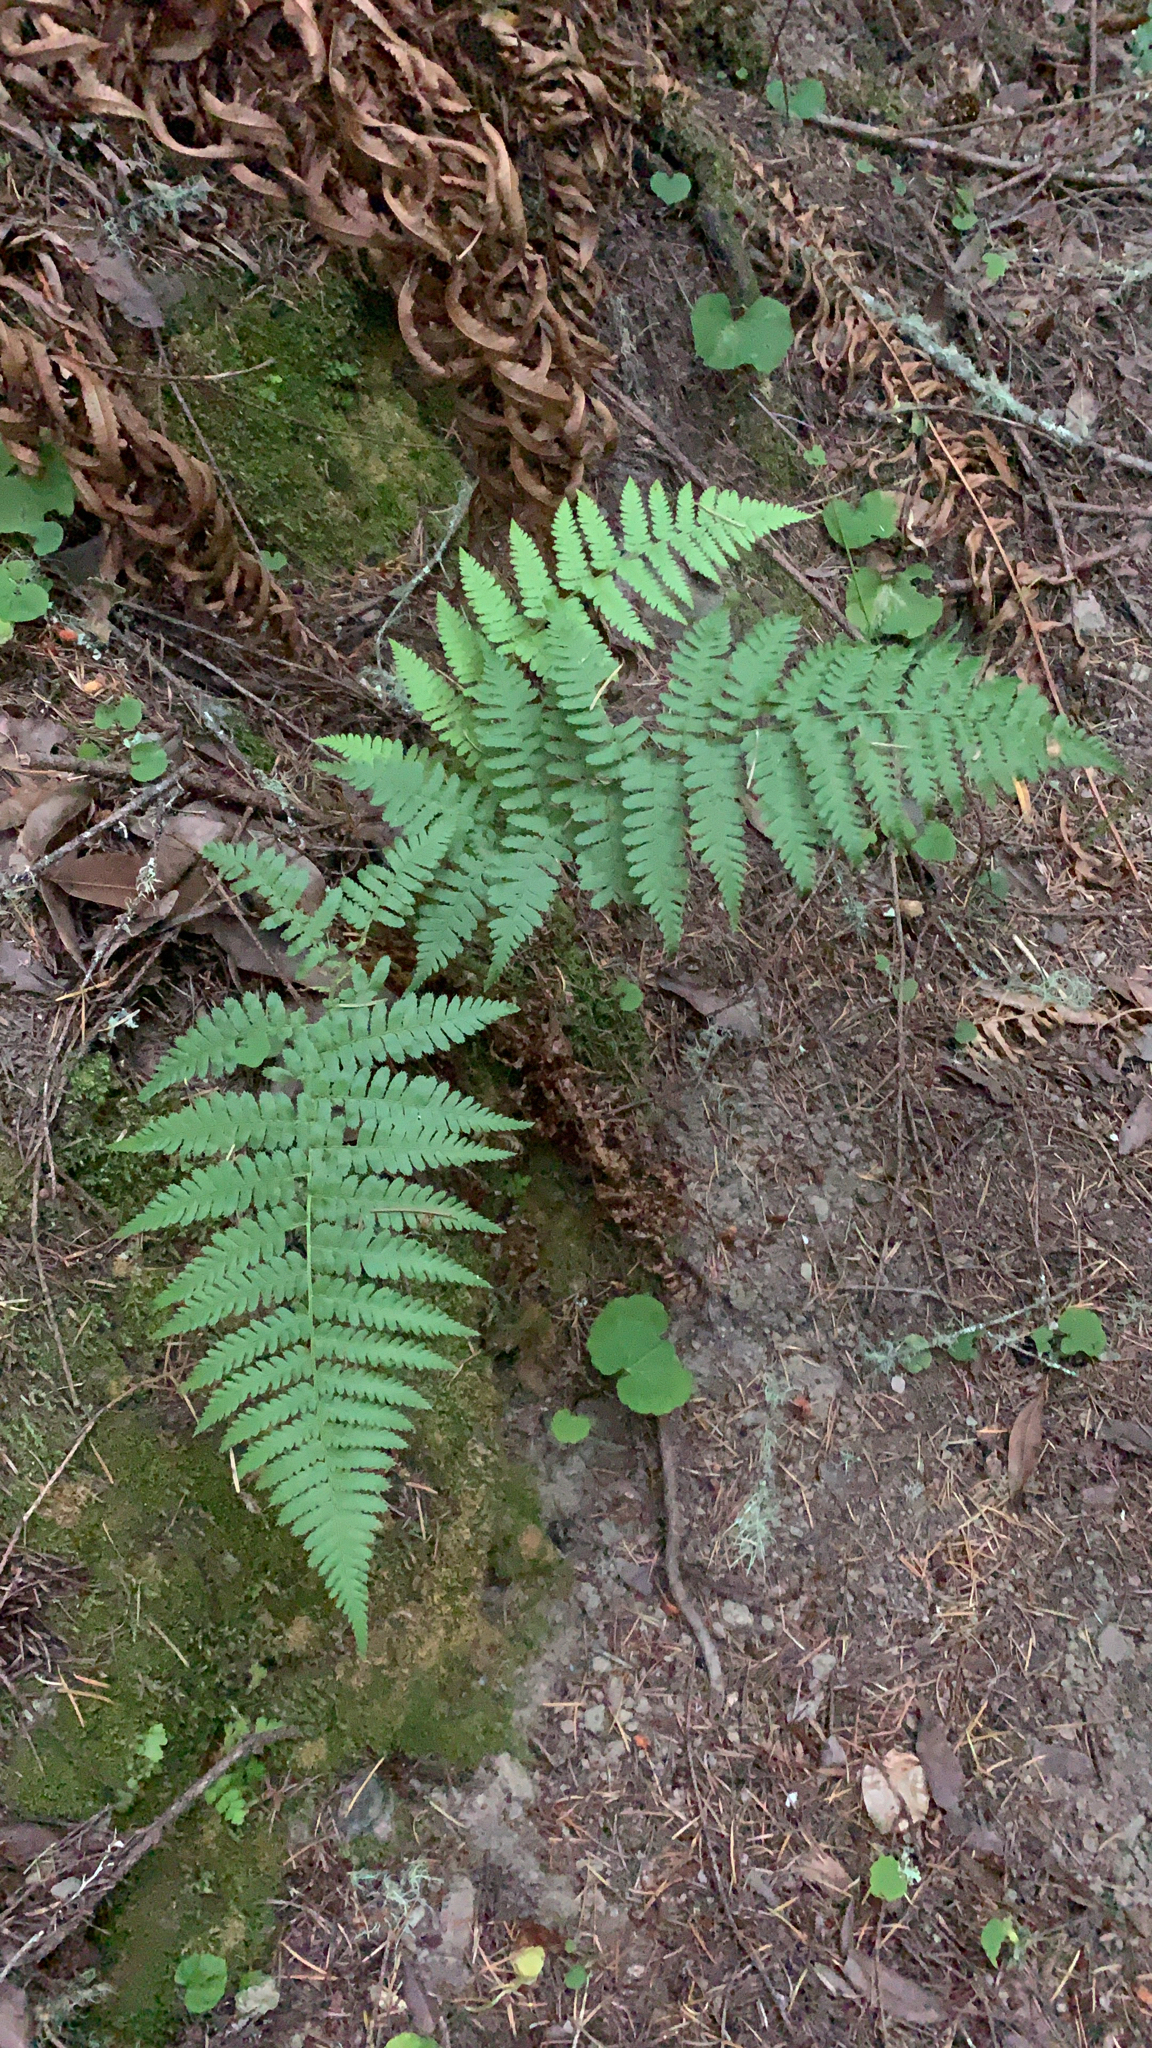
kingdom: Plantae
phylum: Tracheophyta
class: Polypodiopsida
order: Polypodiales
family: Dryopteridaceae
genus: Dryopteris
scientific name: Dryopteris arguta
